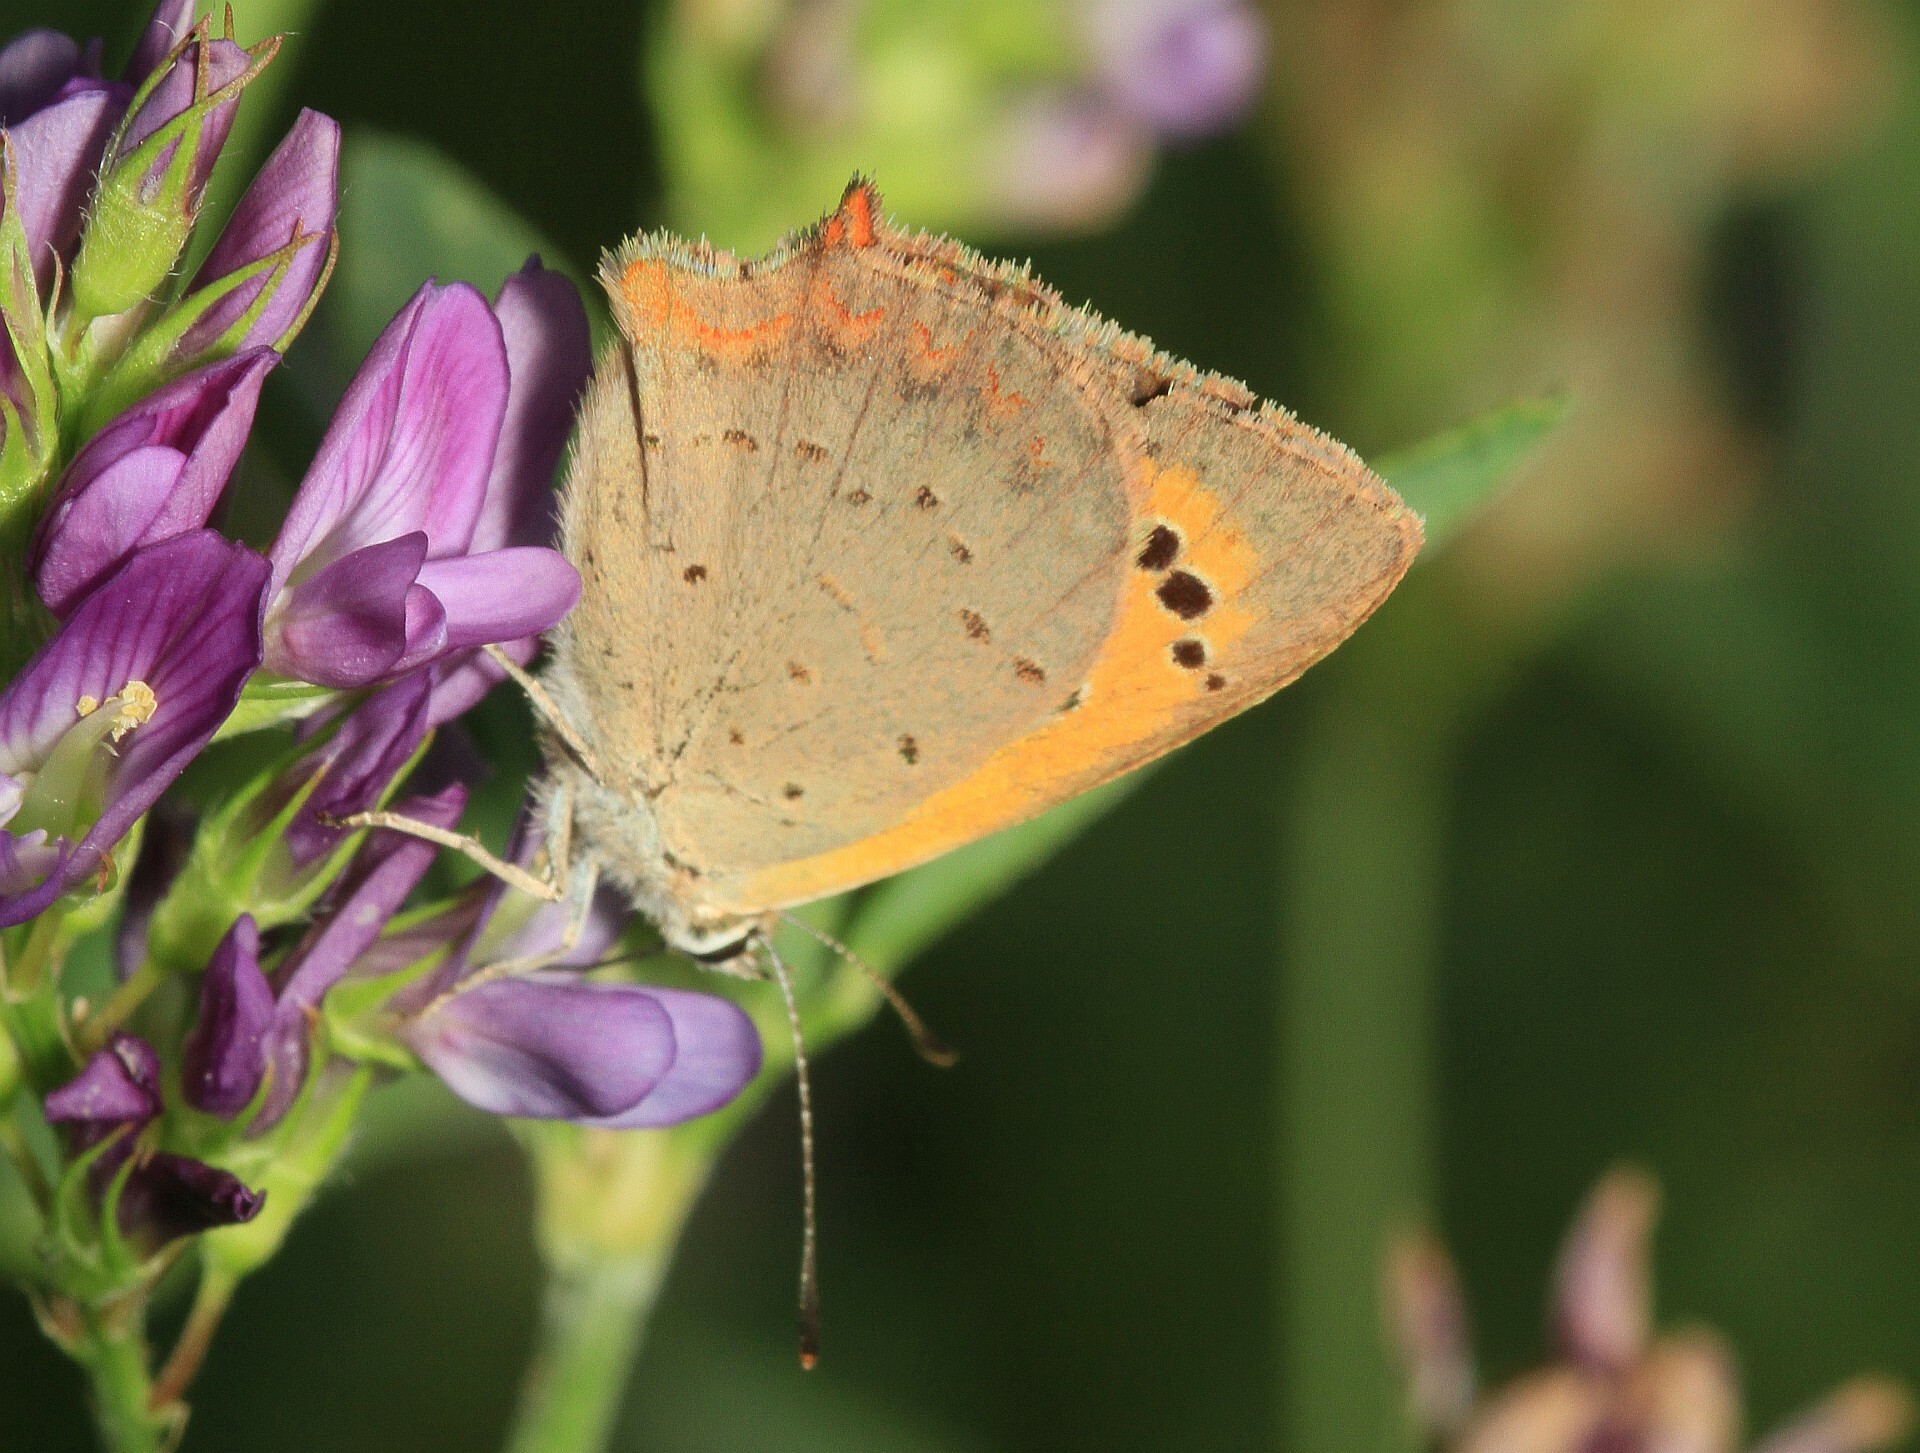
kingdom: Animalia
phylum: Arthropoda
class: Insecta
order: Lepidoptera
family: Lycaenidae
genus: Lycaena
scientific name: Lycaena phlaeas
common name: Small copper
